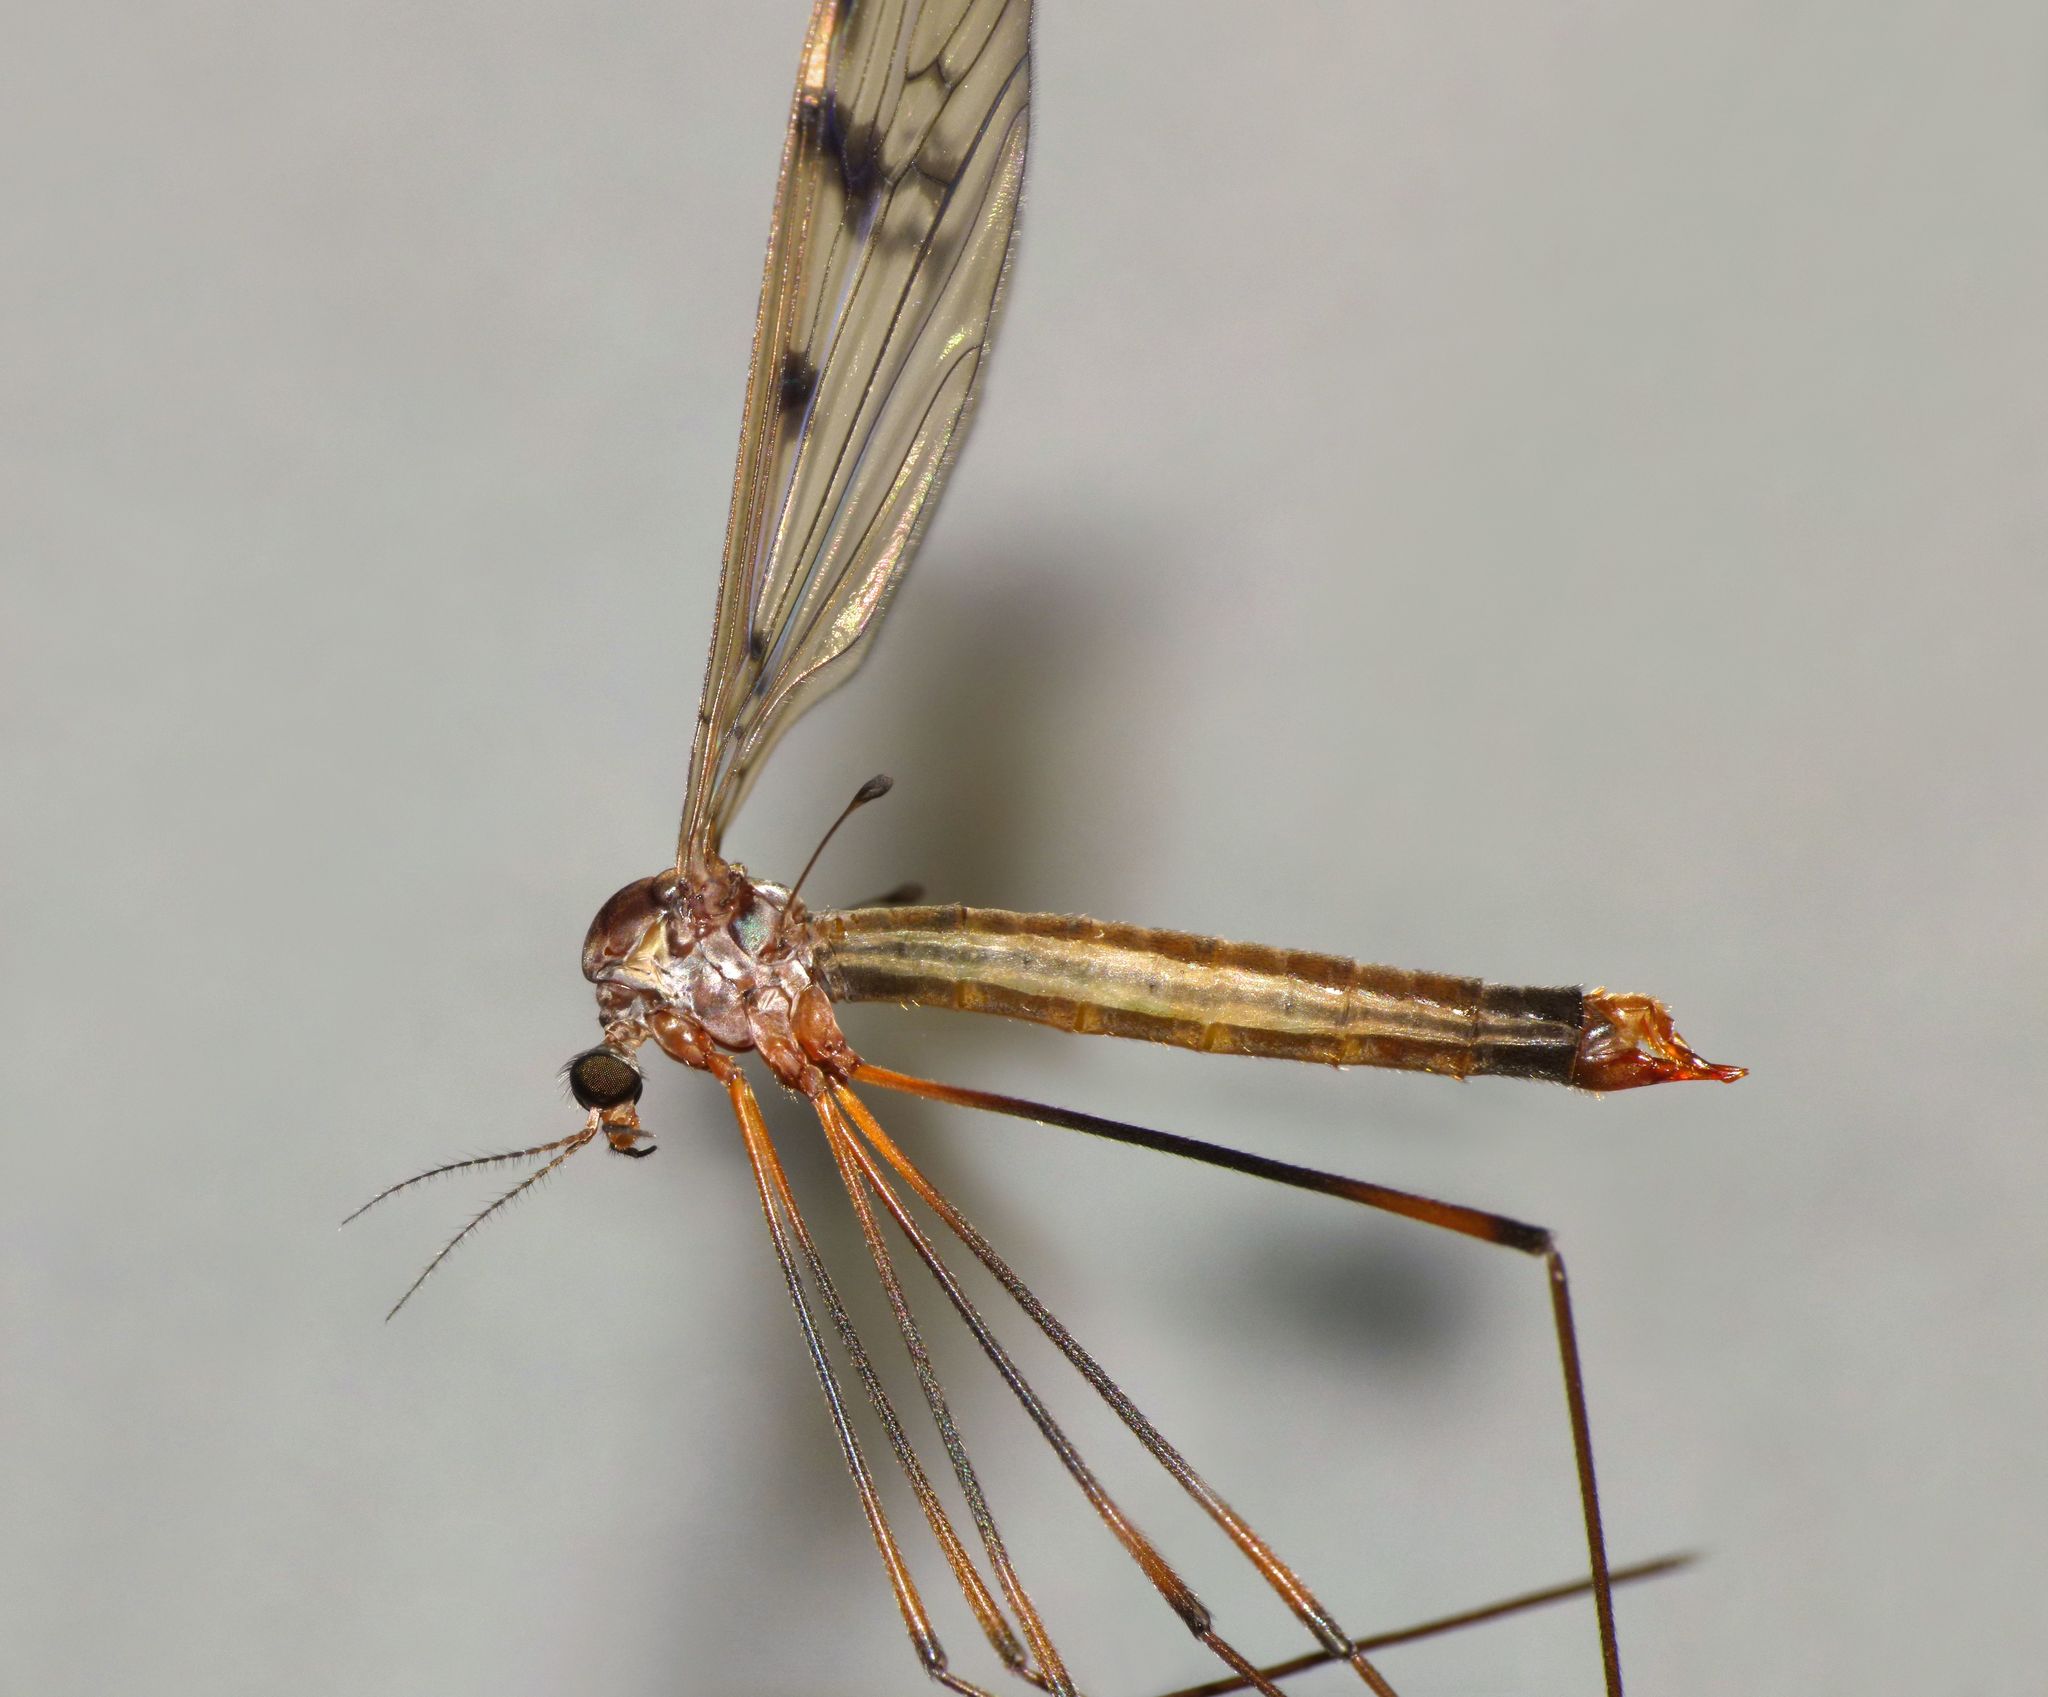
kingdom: Animalia
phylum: Arthropoda
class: Insecta
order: Diptera
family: Limoniidae
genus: Limnophilella
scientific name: Limnophilella serotina
